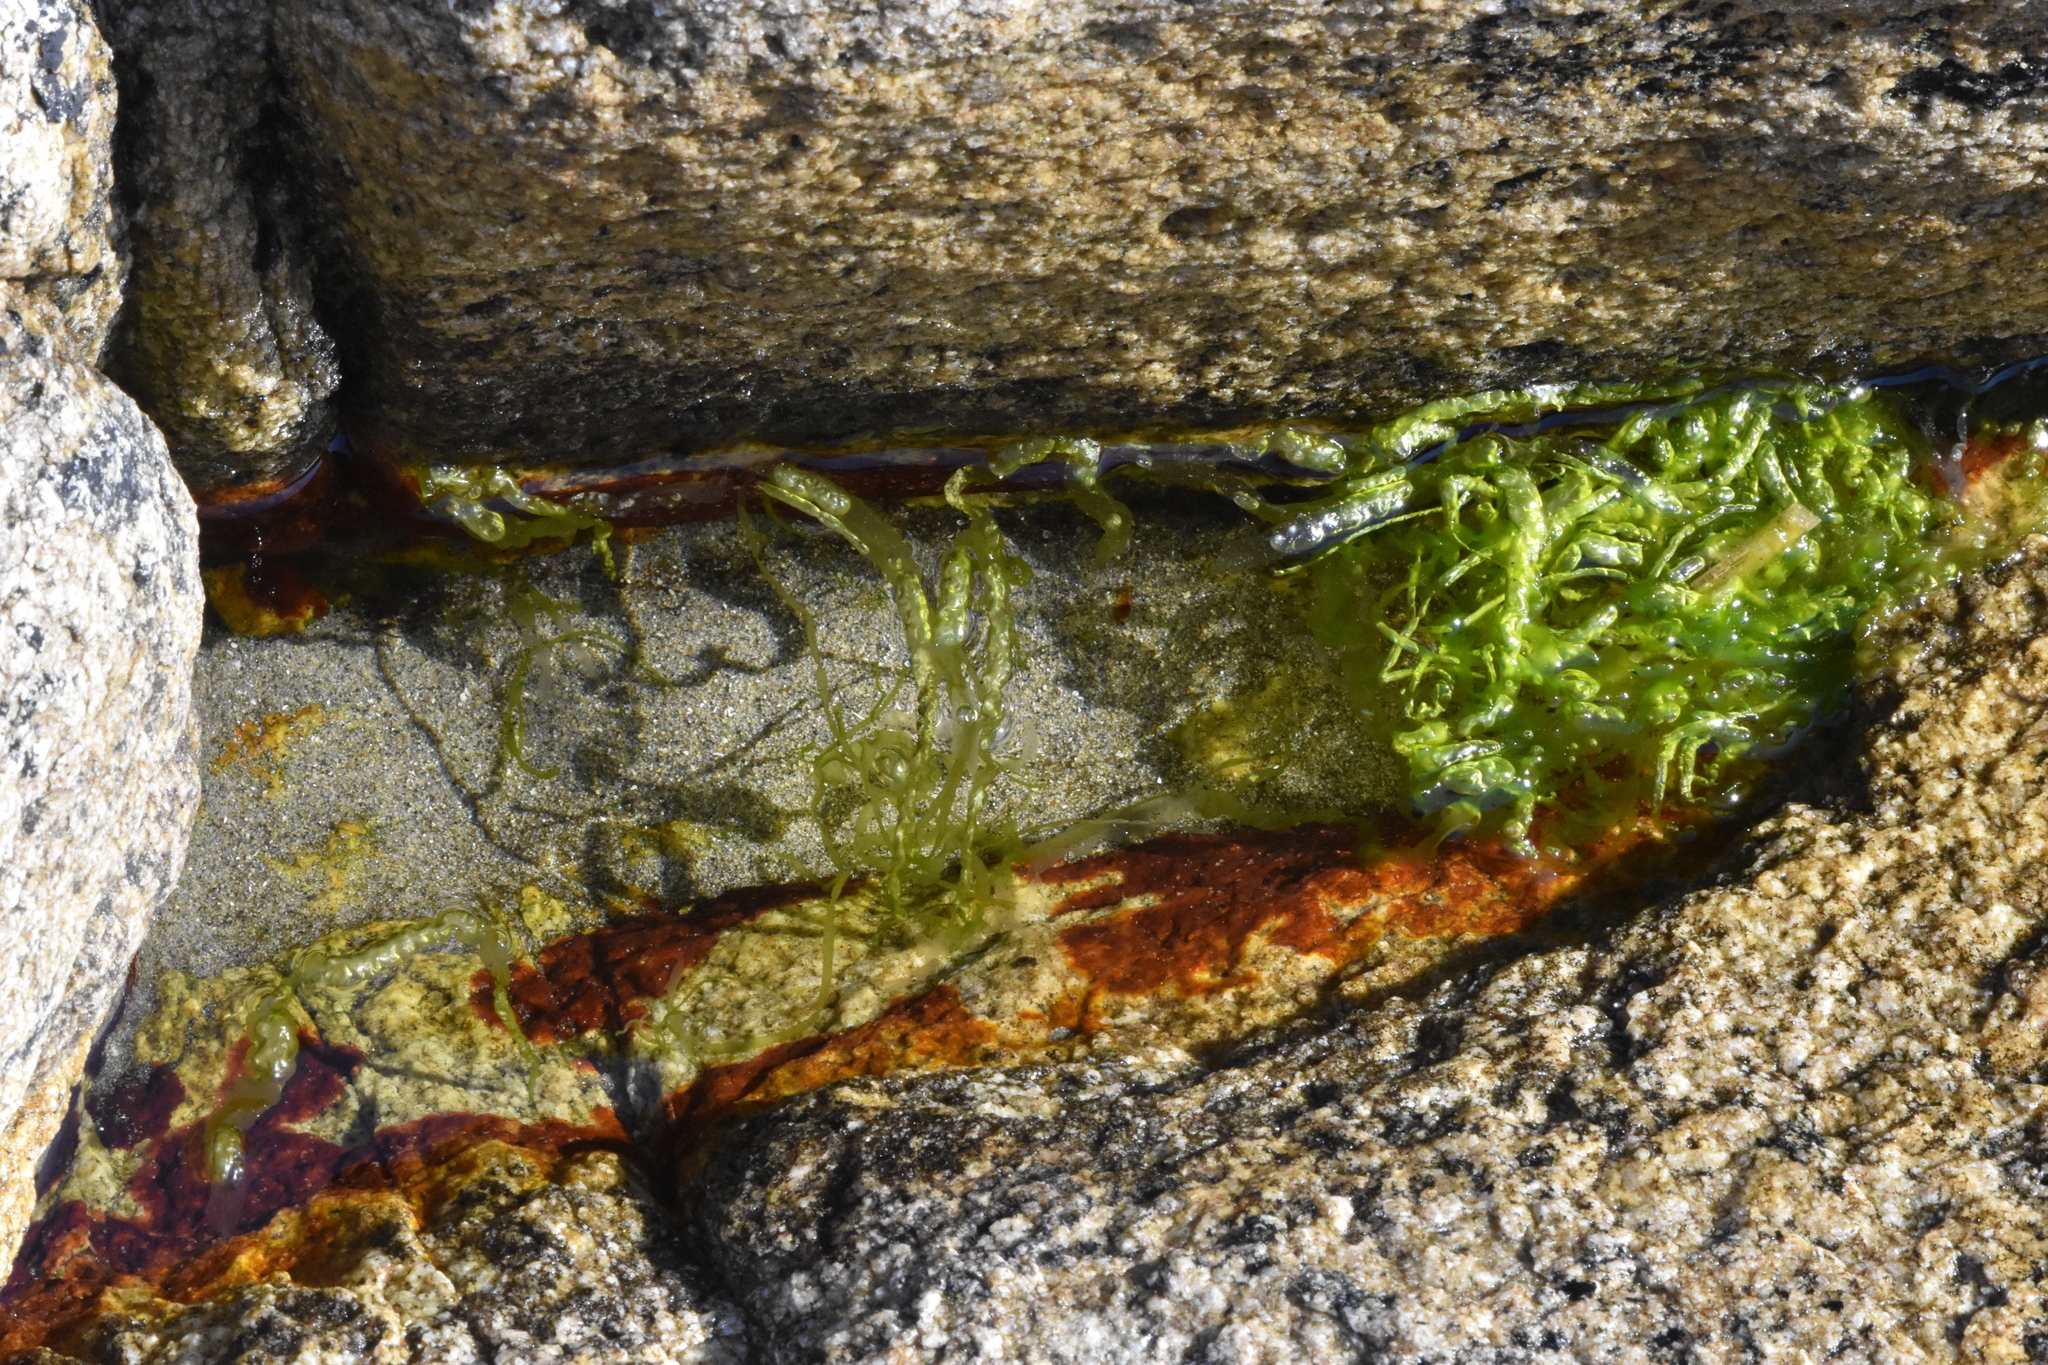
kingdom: Plantae
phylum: Chlorophyta
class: Ulvophyceae
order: Ulvales
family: Ulvaceae
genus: Ulva
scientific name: Ulva intestinalis
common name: Gut weed
